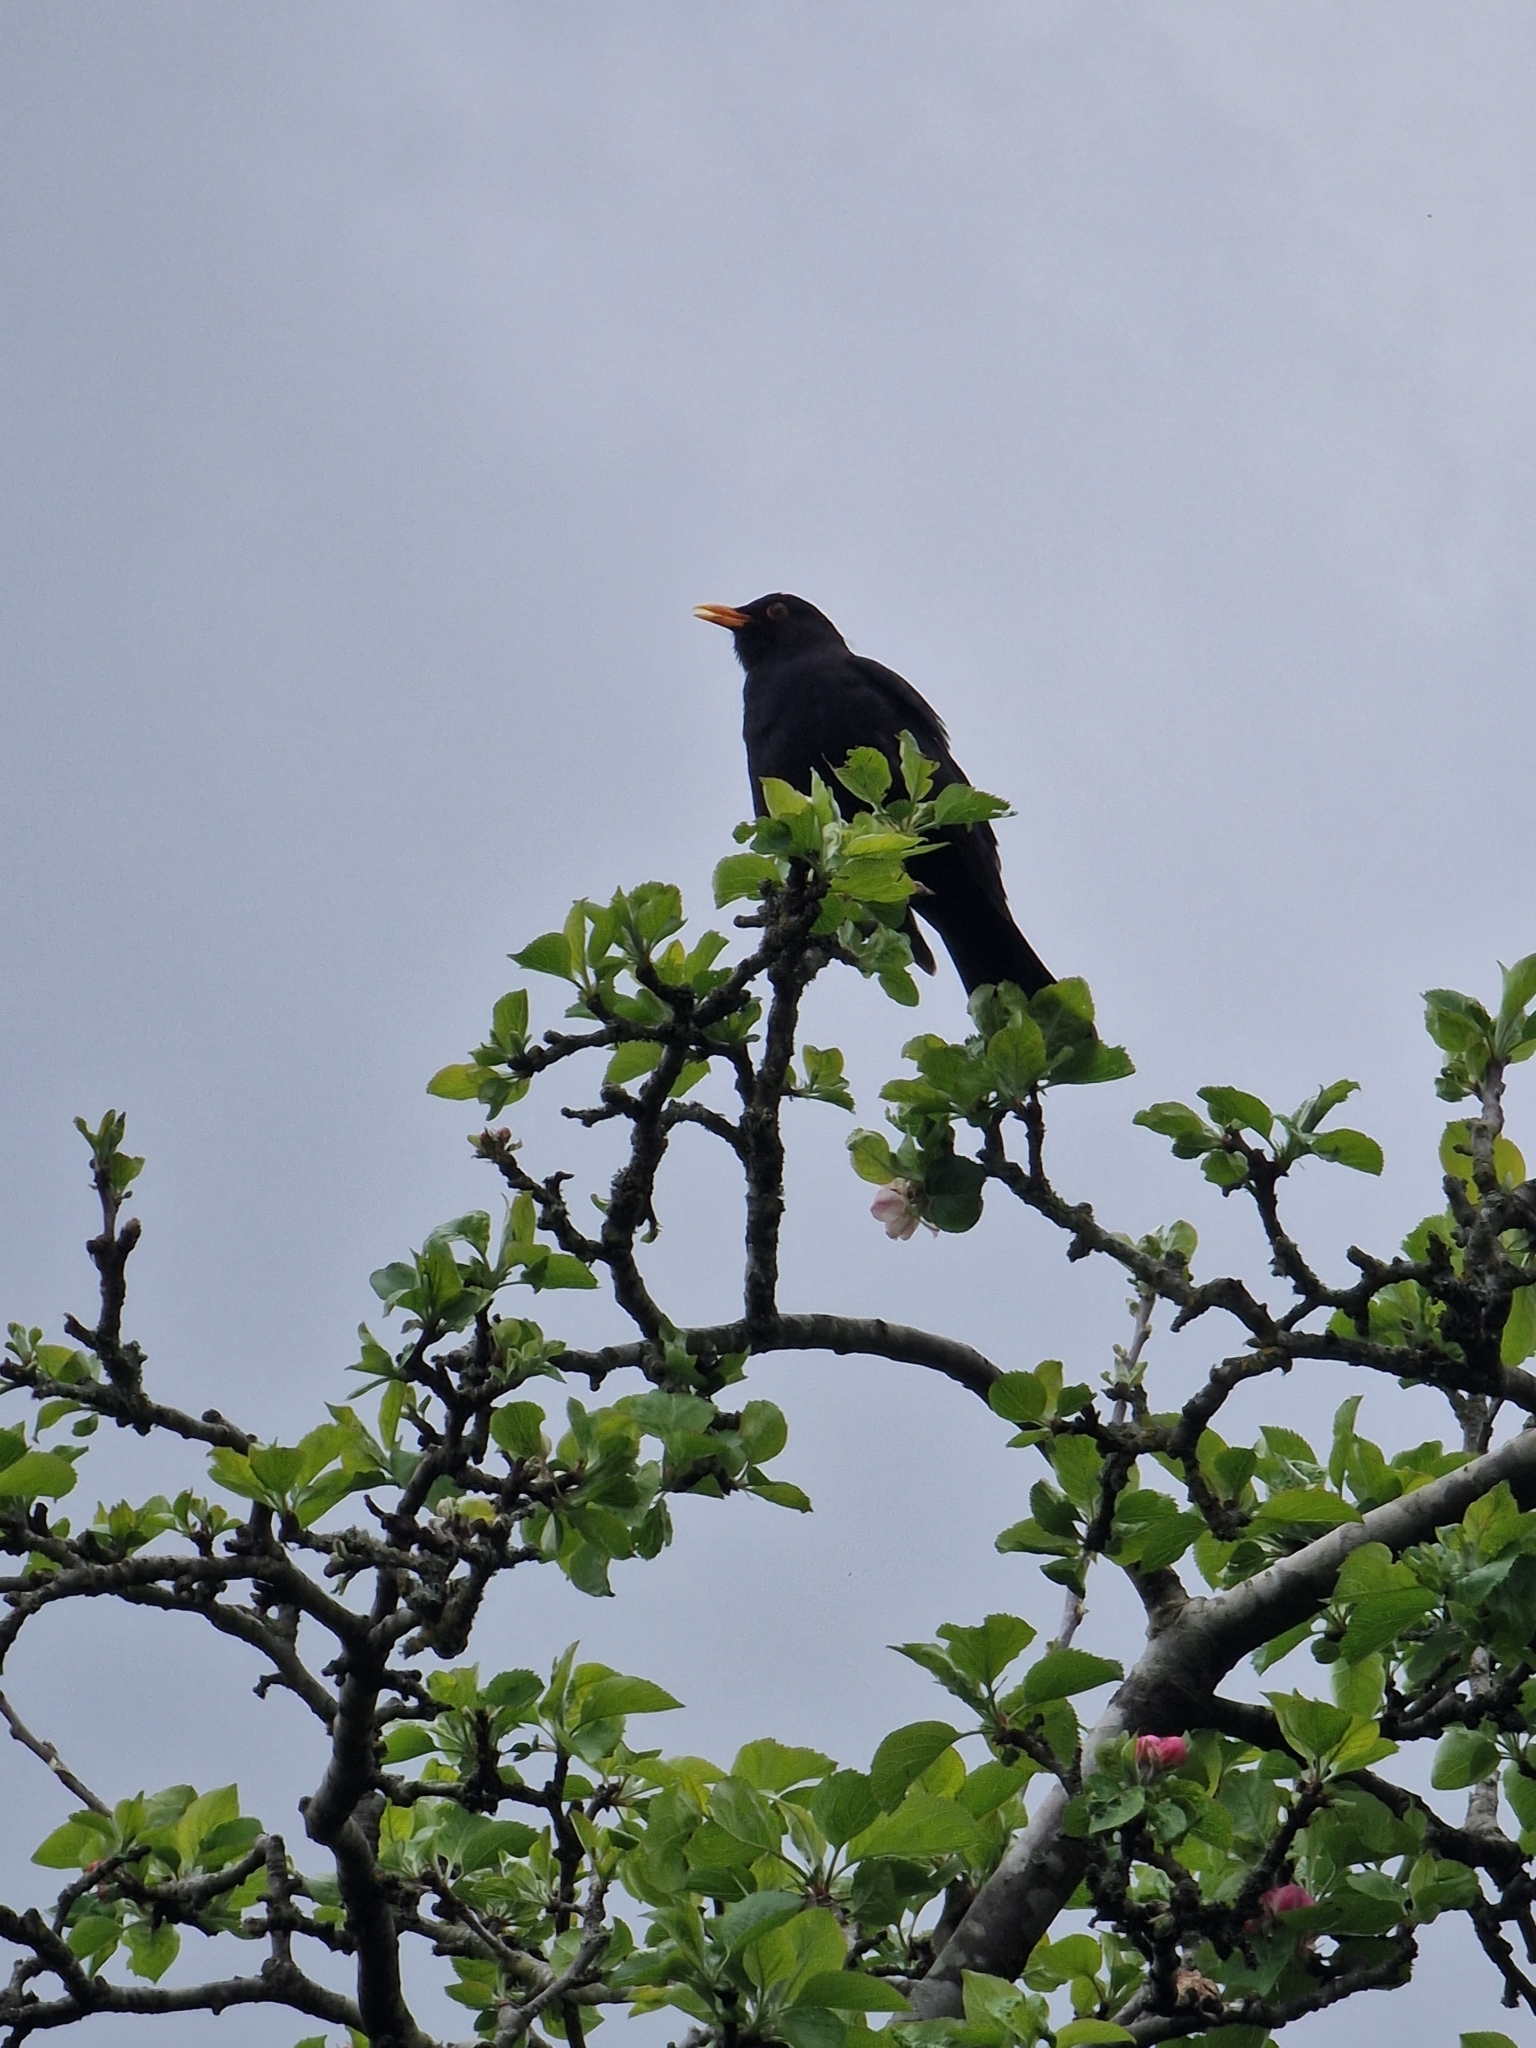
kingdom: Animalia
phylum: Chordata
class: Aves
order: Passeriformes
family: Turdidae
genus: Turdus
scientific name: Turdus merula
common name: Common blackbird
